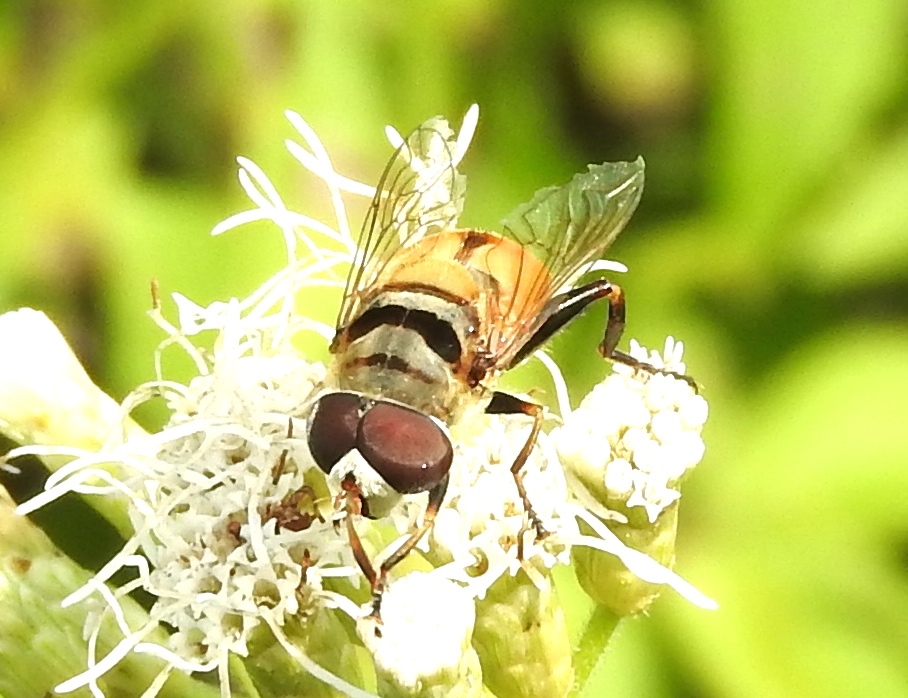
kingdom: Animalia
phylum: Arthropoda
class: Insecta
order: Diptera
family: Syrphidae
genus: Palpada
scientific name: Palpada
